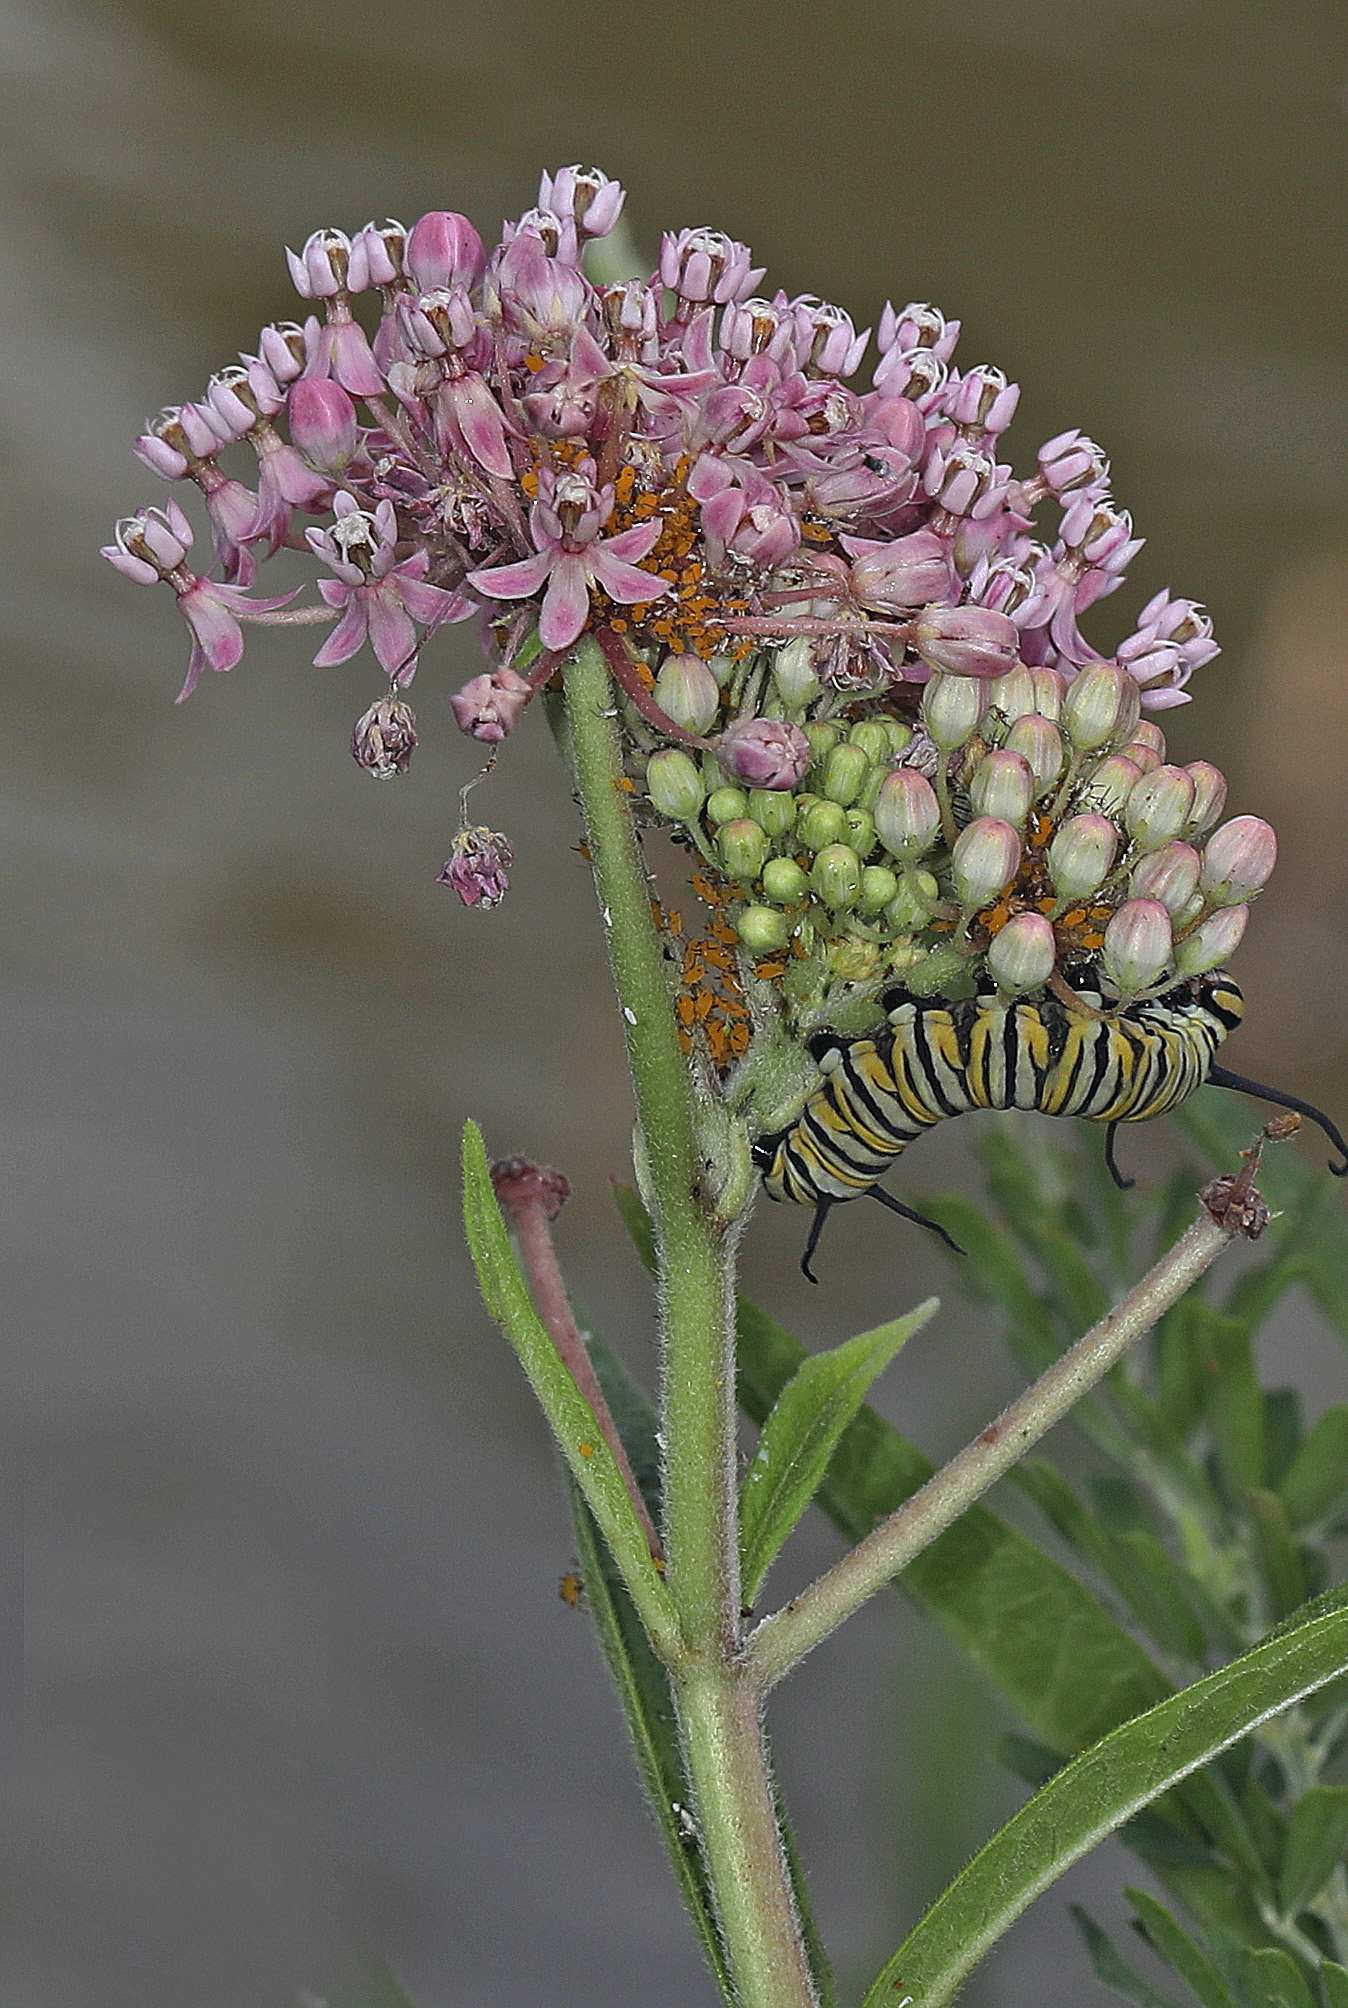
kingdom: Animalia
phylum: Arthropoda
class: Insecta
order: Lepidoptera
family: Nymphalidae
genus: Danaus
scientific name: Danaus plexippus
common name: Monarch
